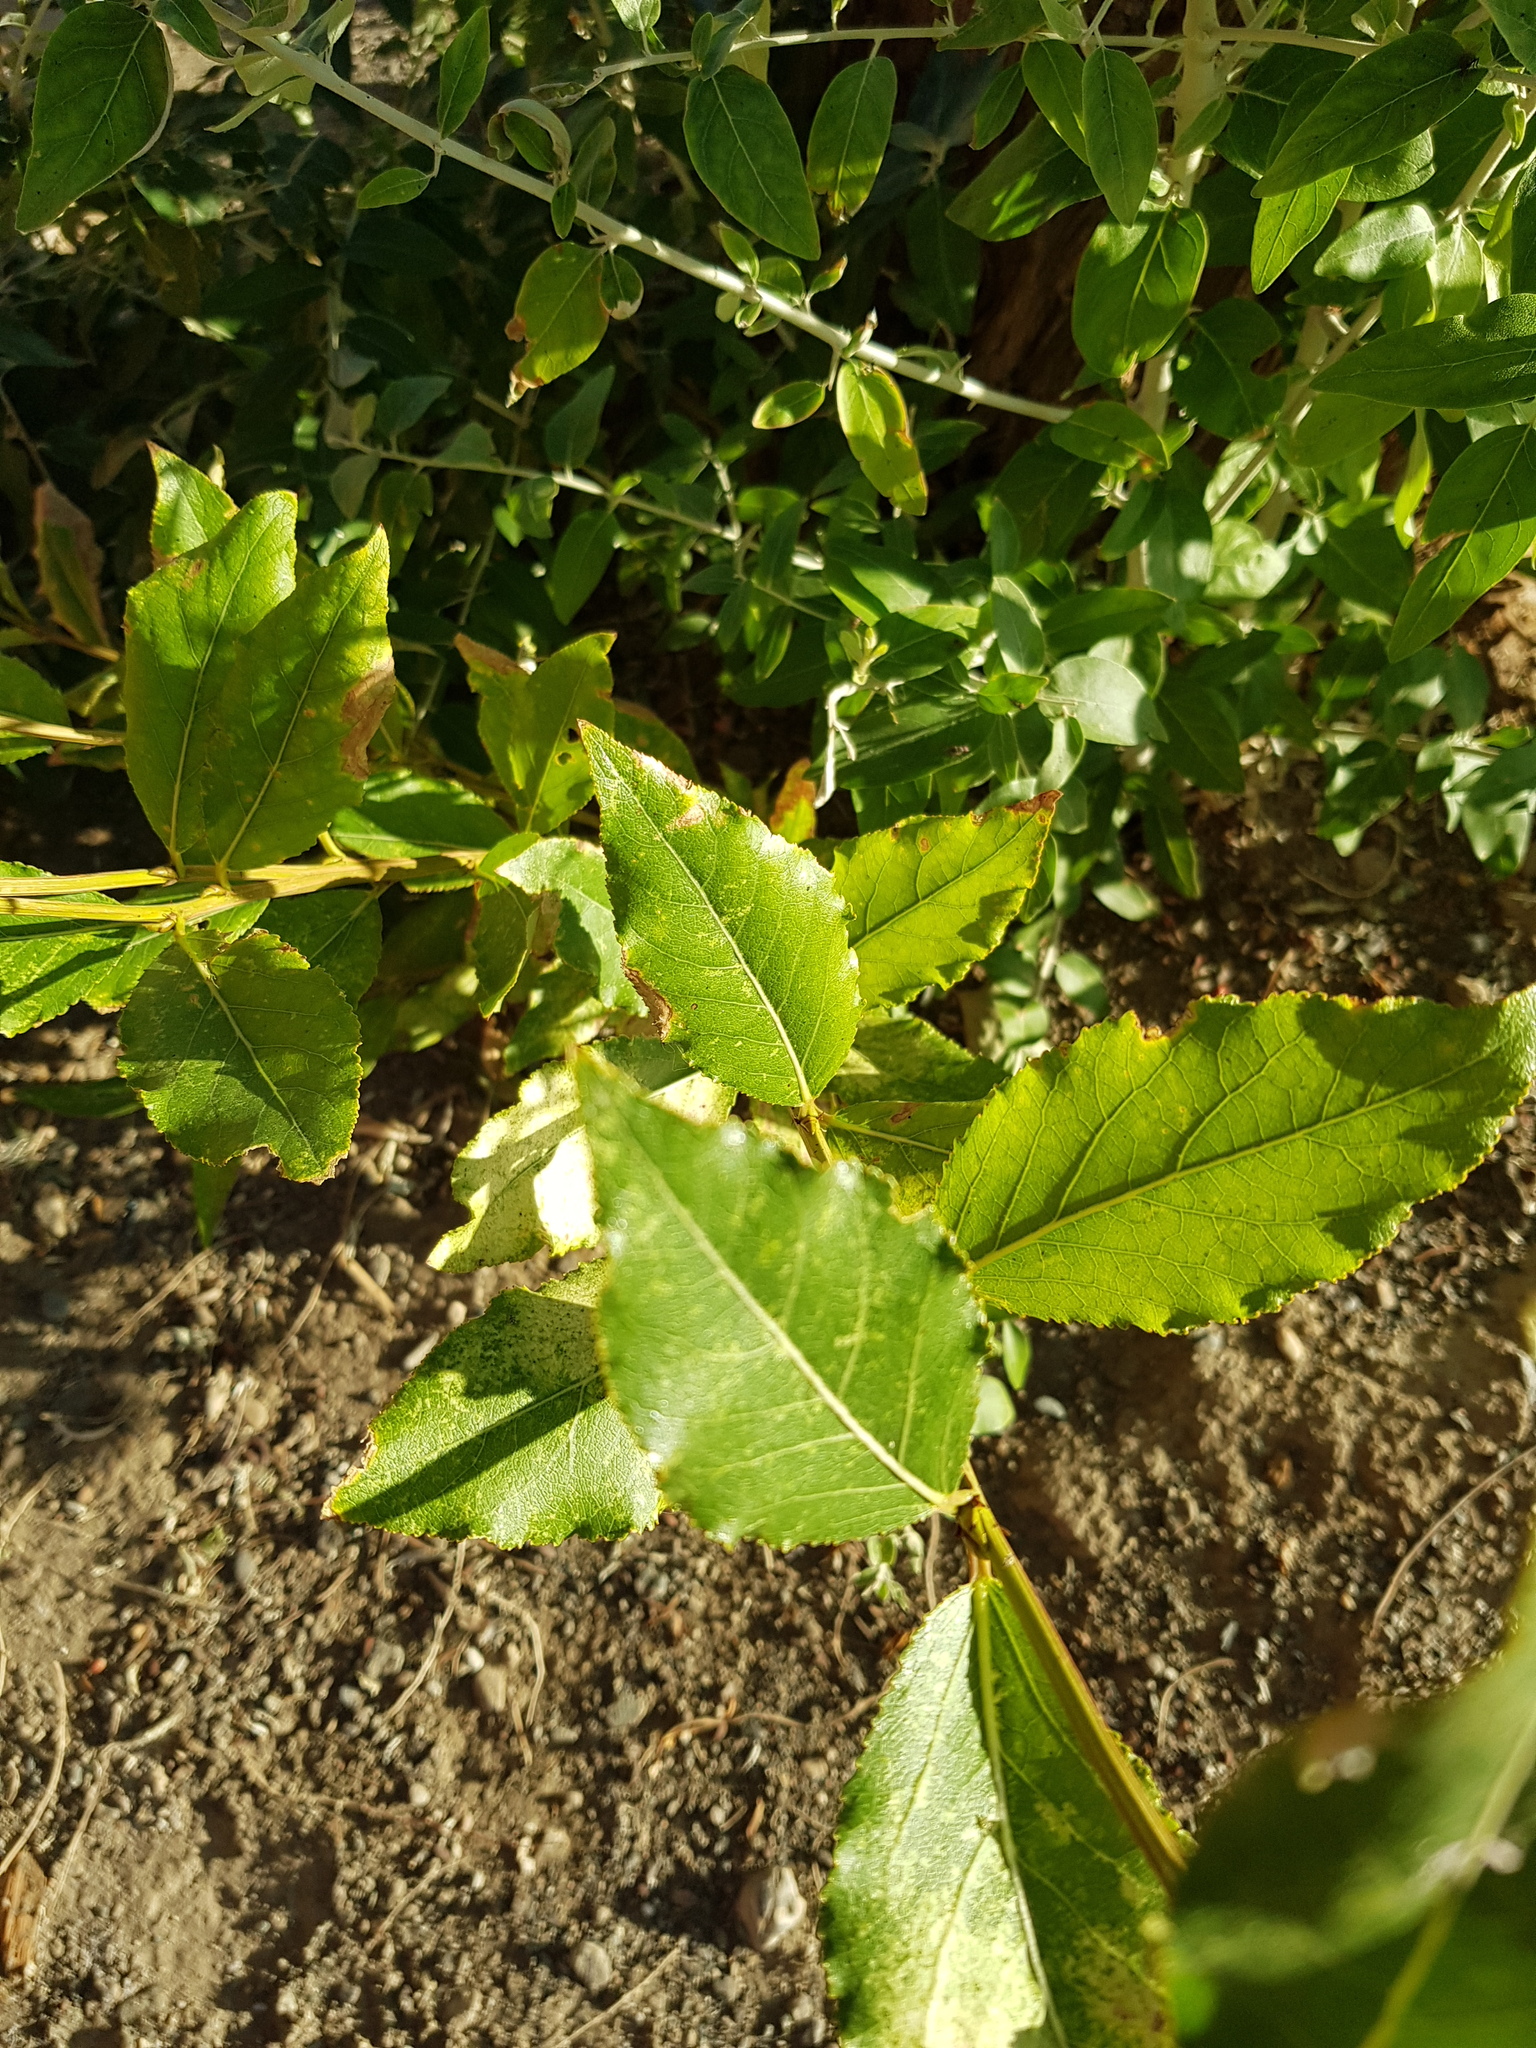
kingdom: Plantae
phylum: Tracheophyta
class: Magnoliopsida
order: Malpighiales
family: Salicaceae
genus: Populus
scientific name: Populus laurifolia
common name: Laurel-leaf poplar
